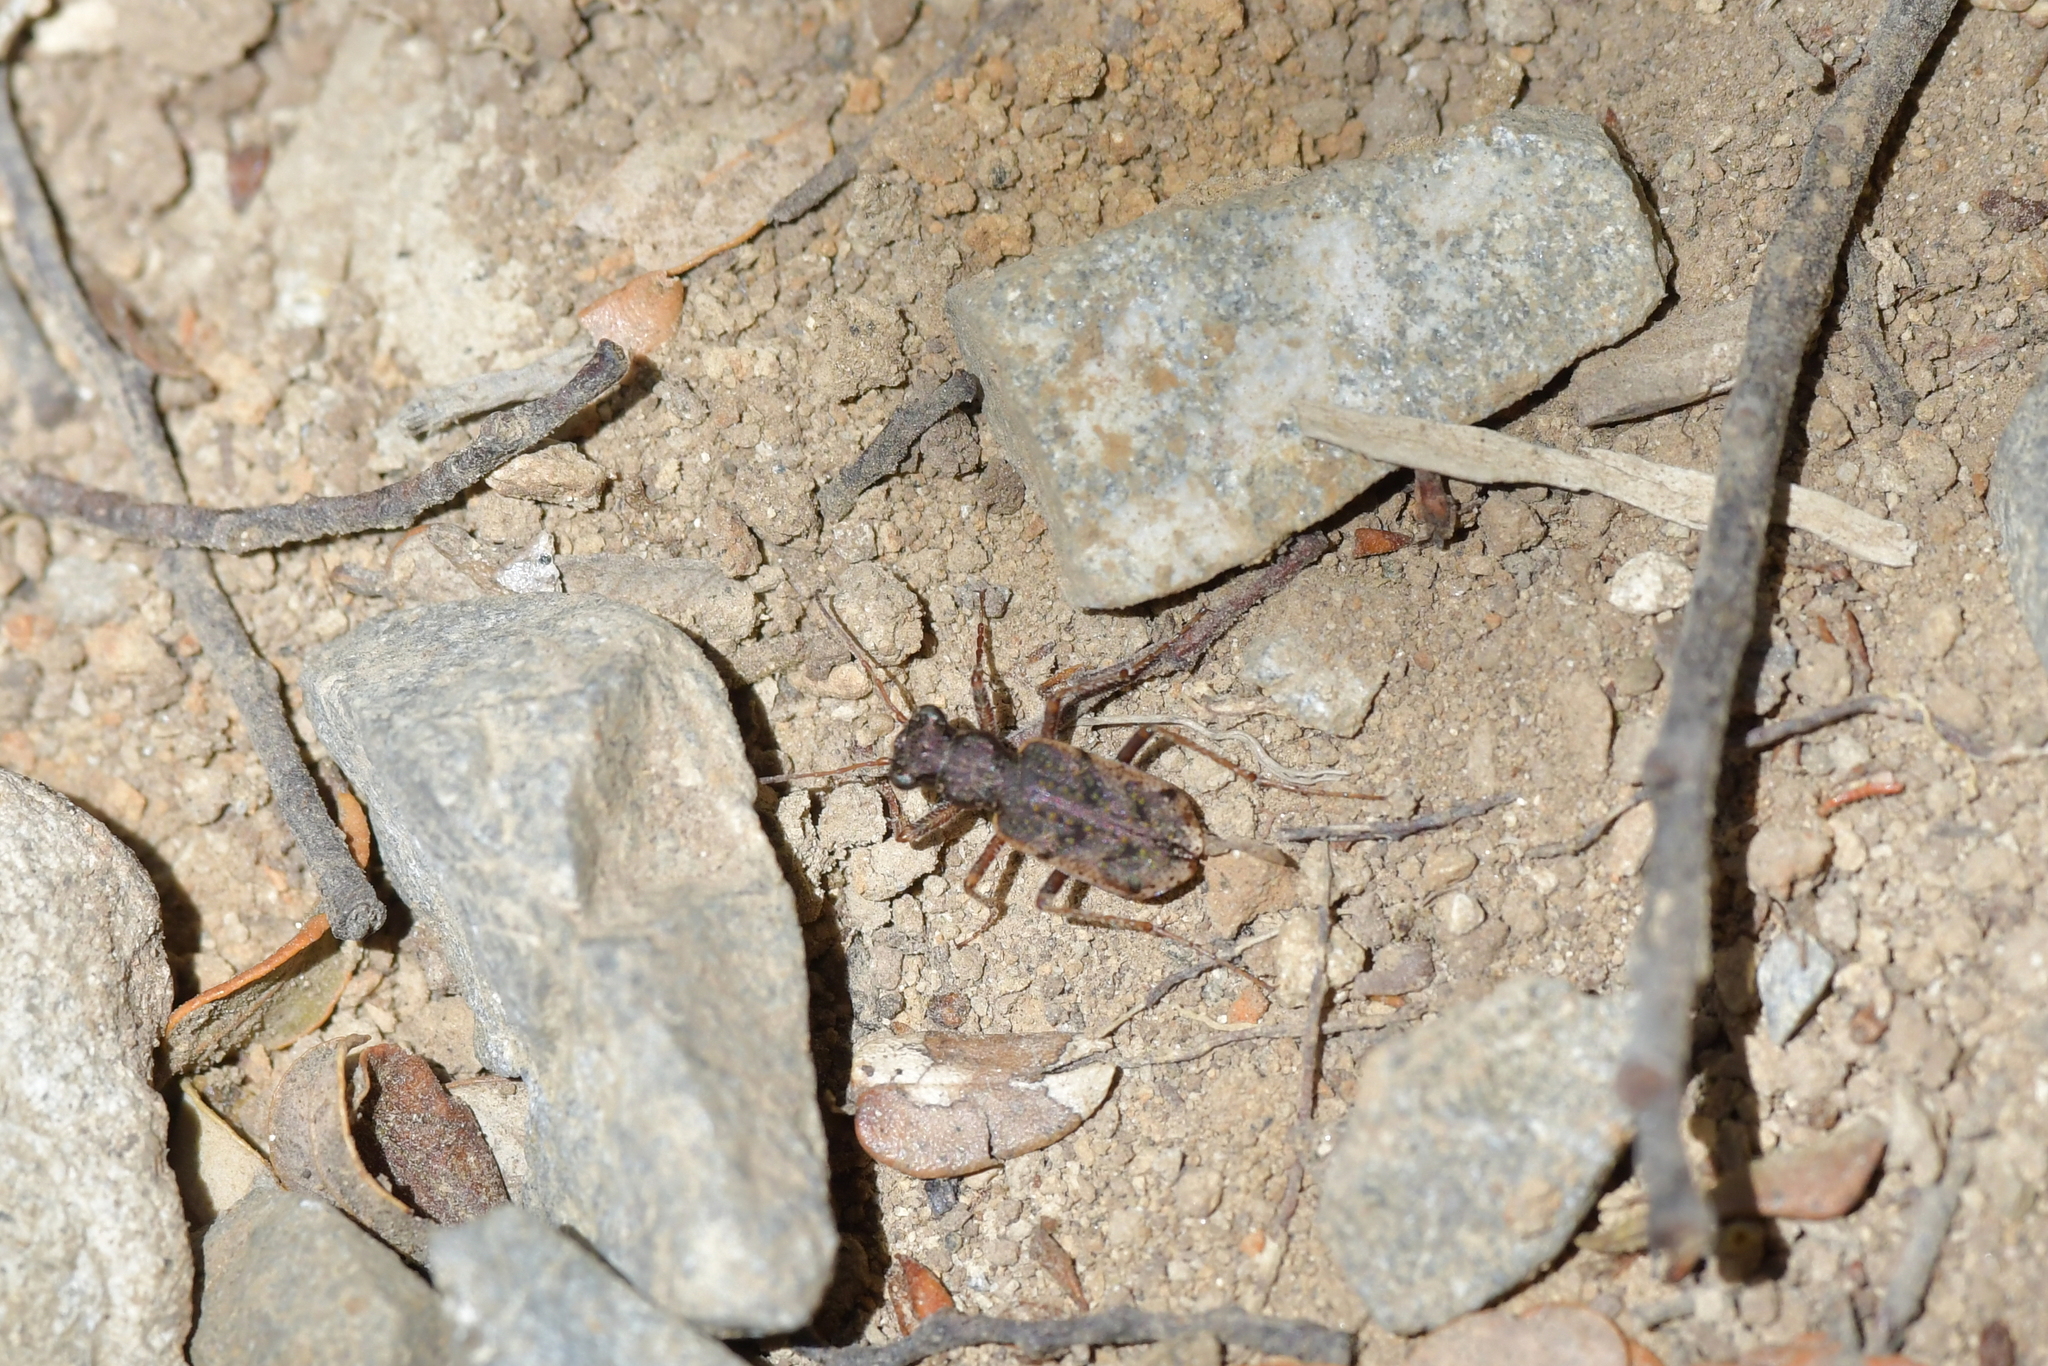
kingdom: Animalia
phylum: Arthropoda
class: Insecta
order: Coleoptera
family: Carabidae
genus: Neocicindela
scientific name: Neocicindela parryi
